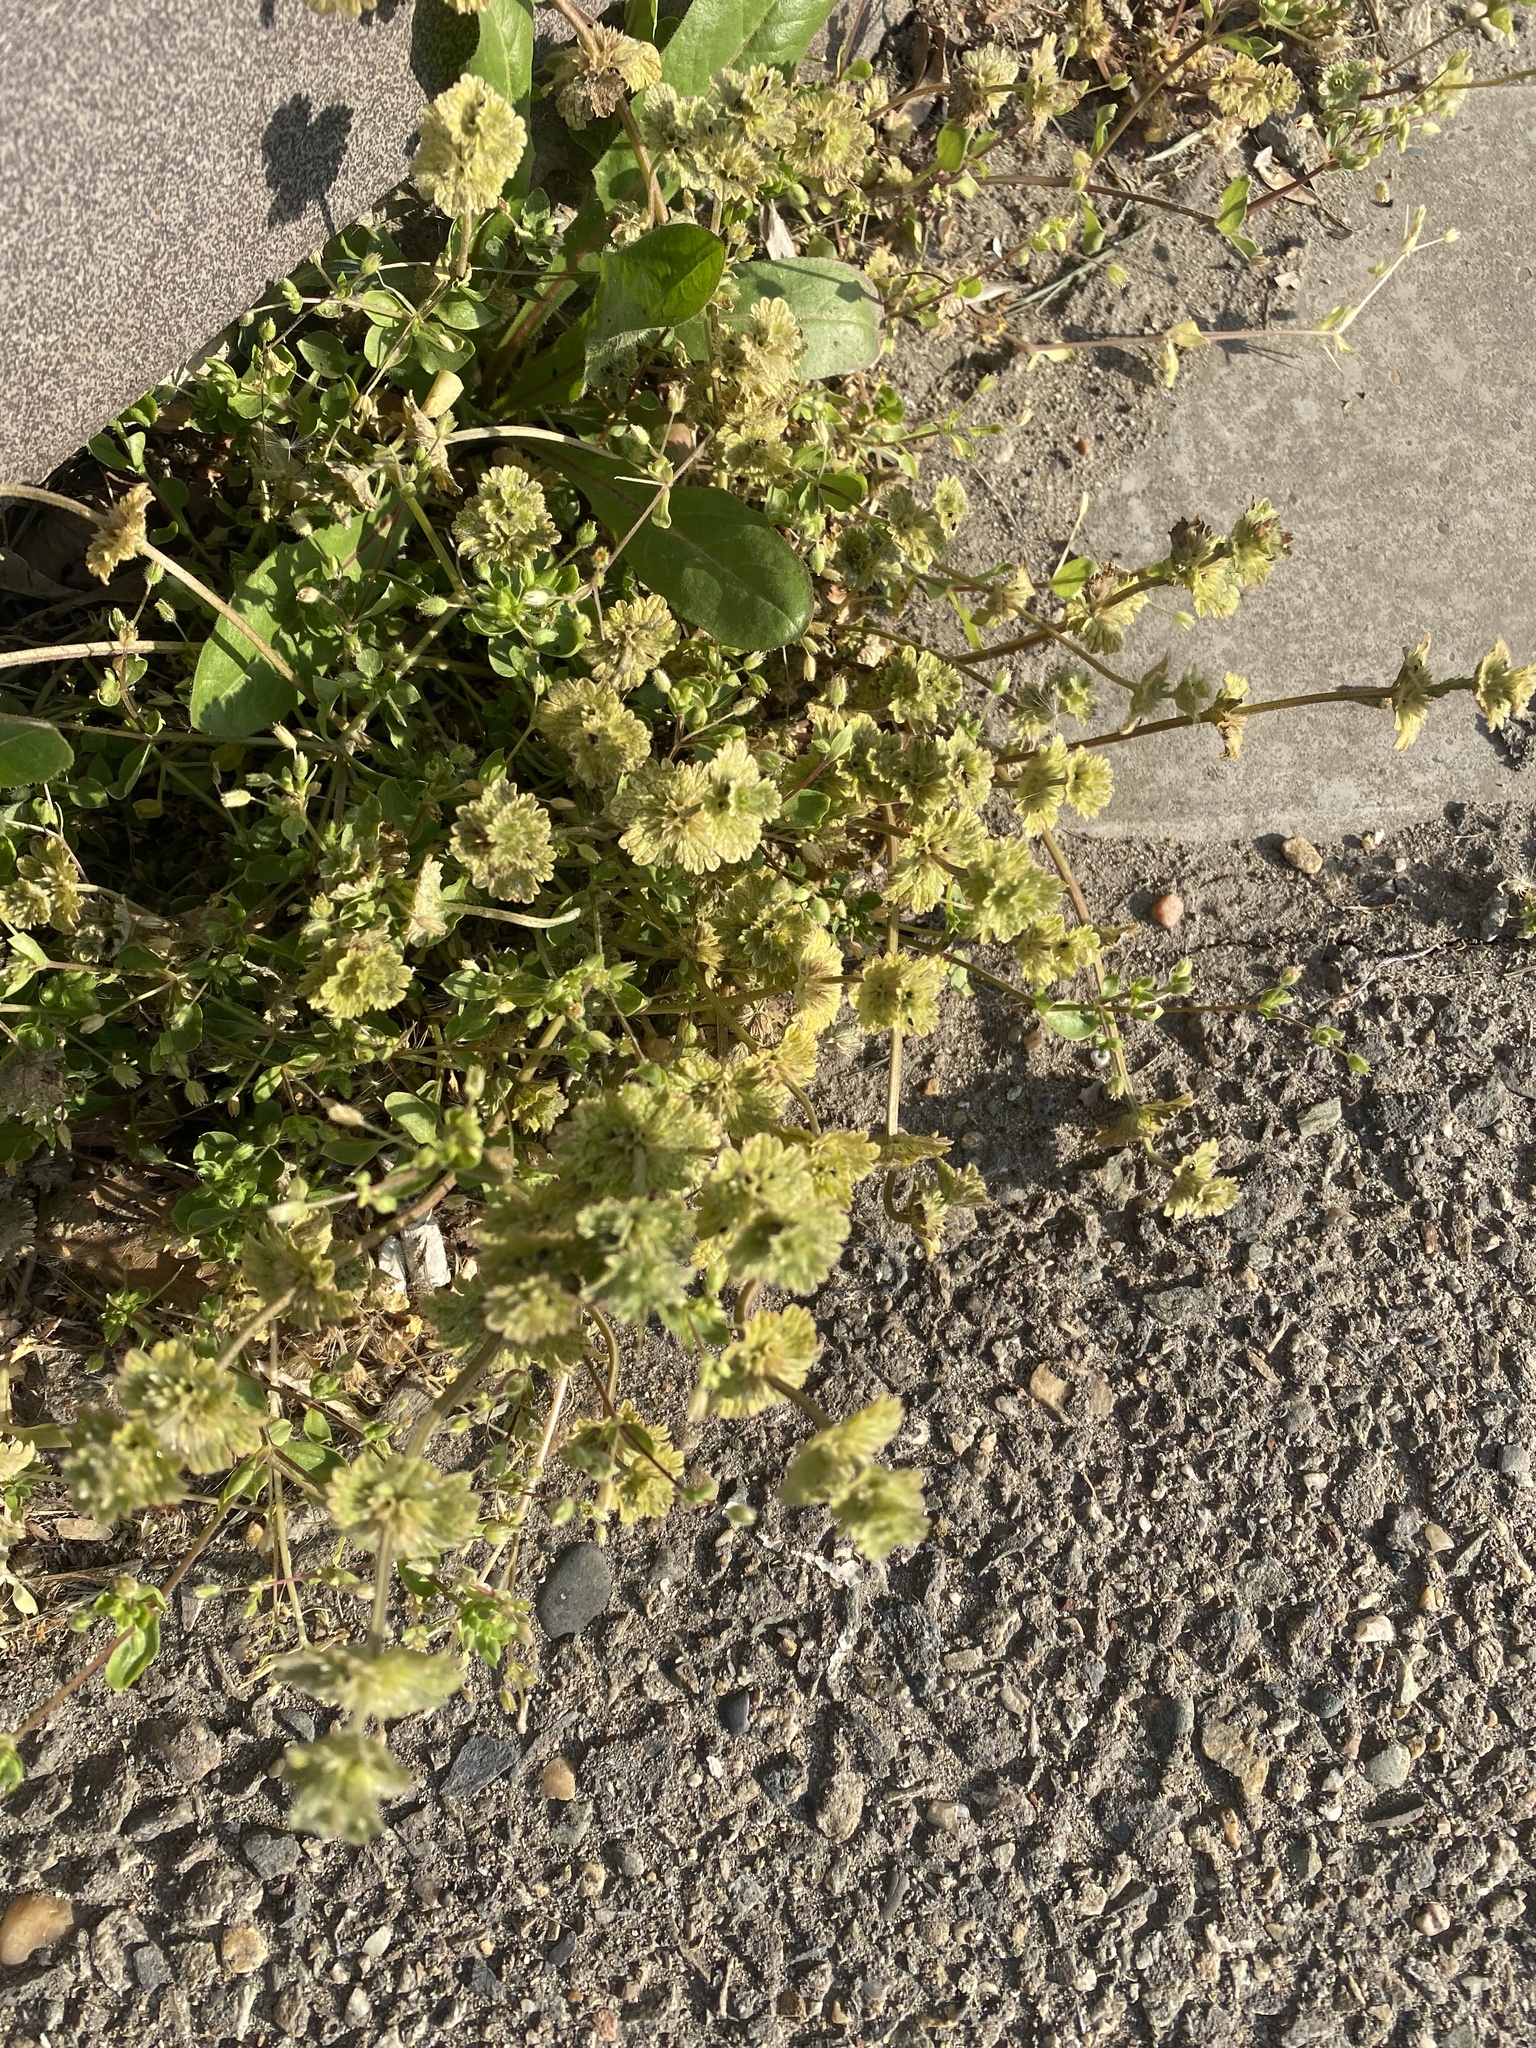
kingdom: Plantae
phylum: Tracheophyta
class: Magnoliopsida
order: Lamiales
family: Lamiaceae
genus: Lamium
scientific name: Lamium amplexicaule
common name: Henbit dead-nettle
